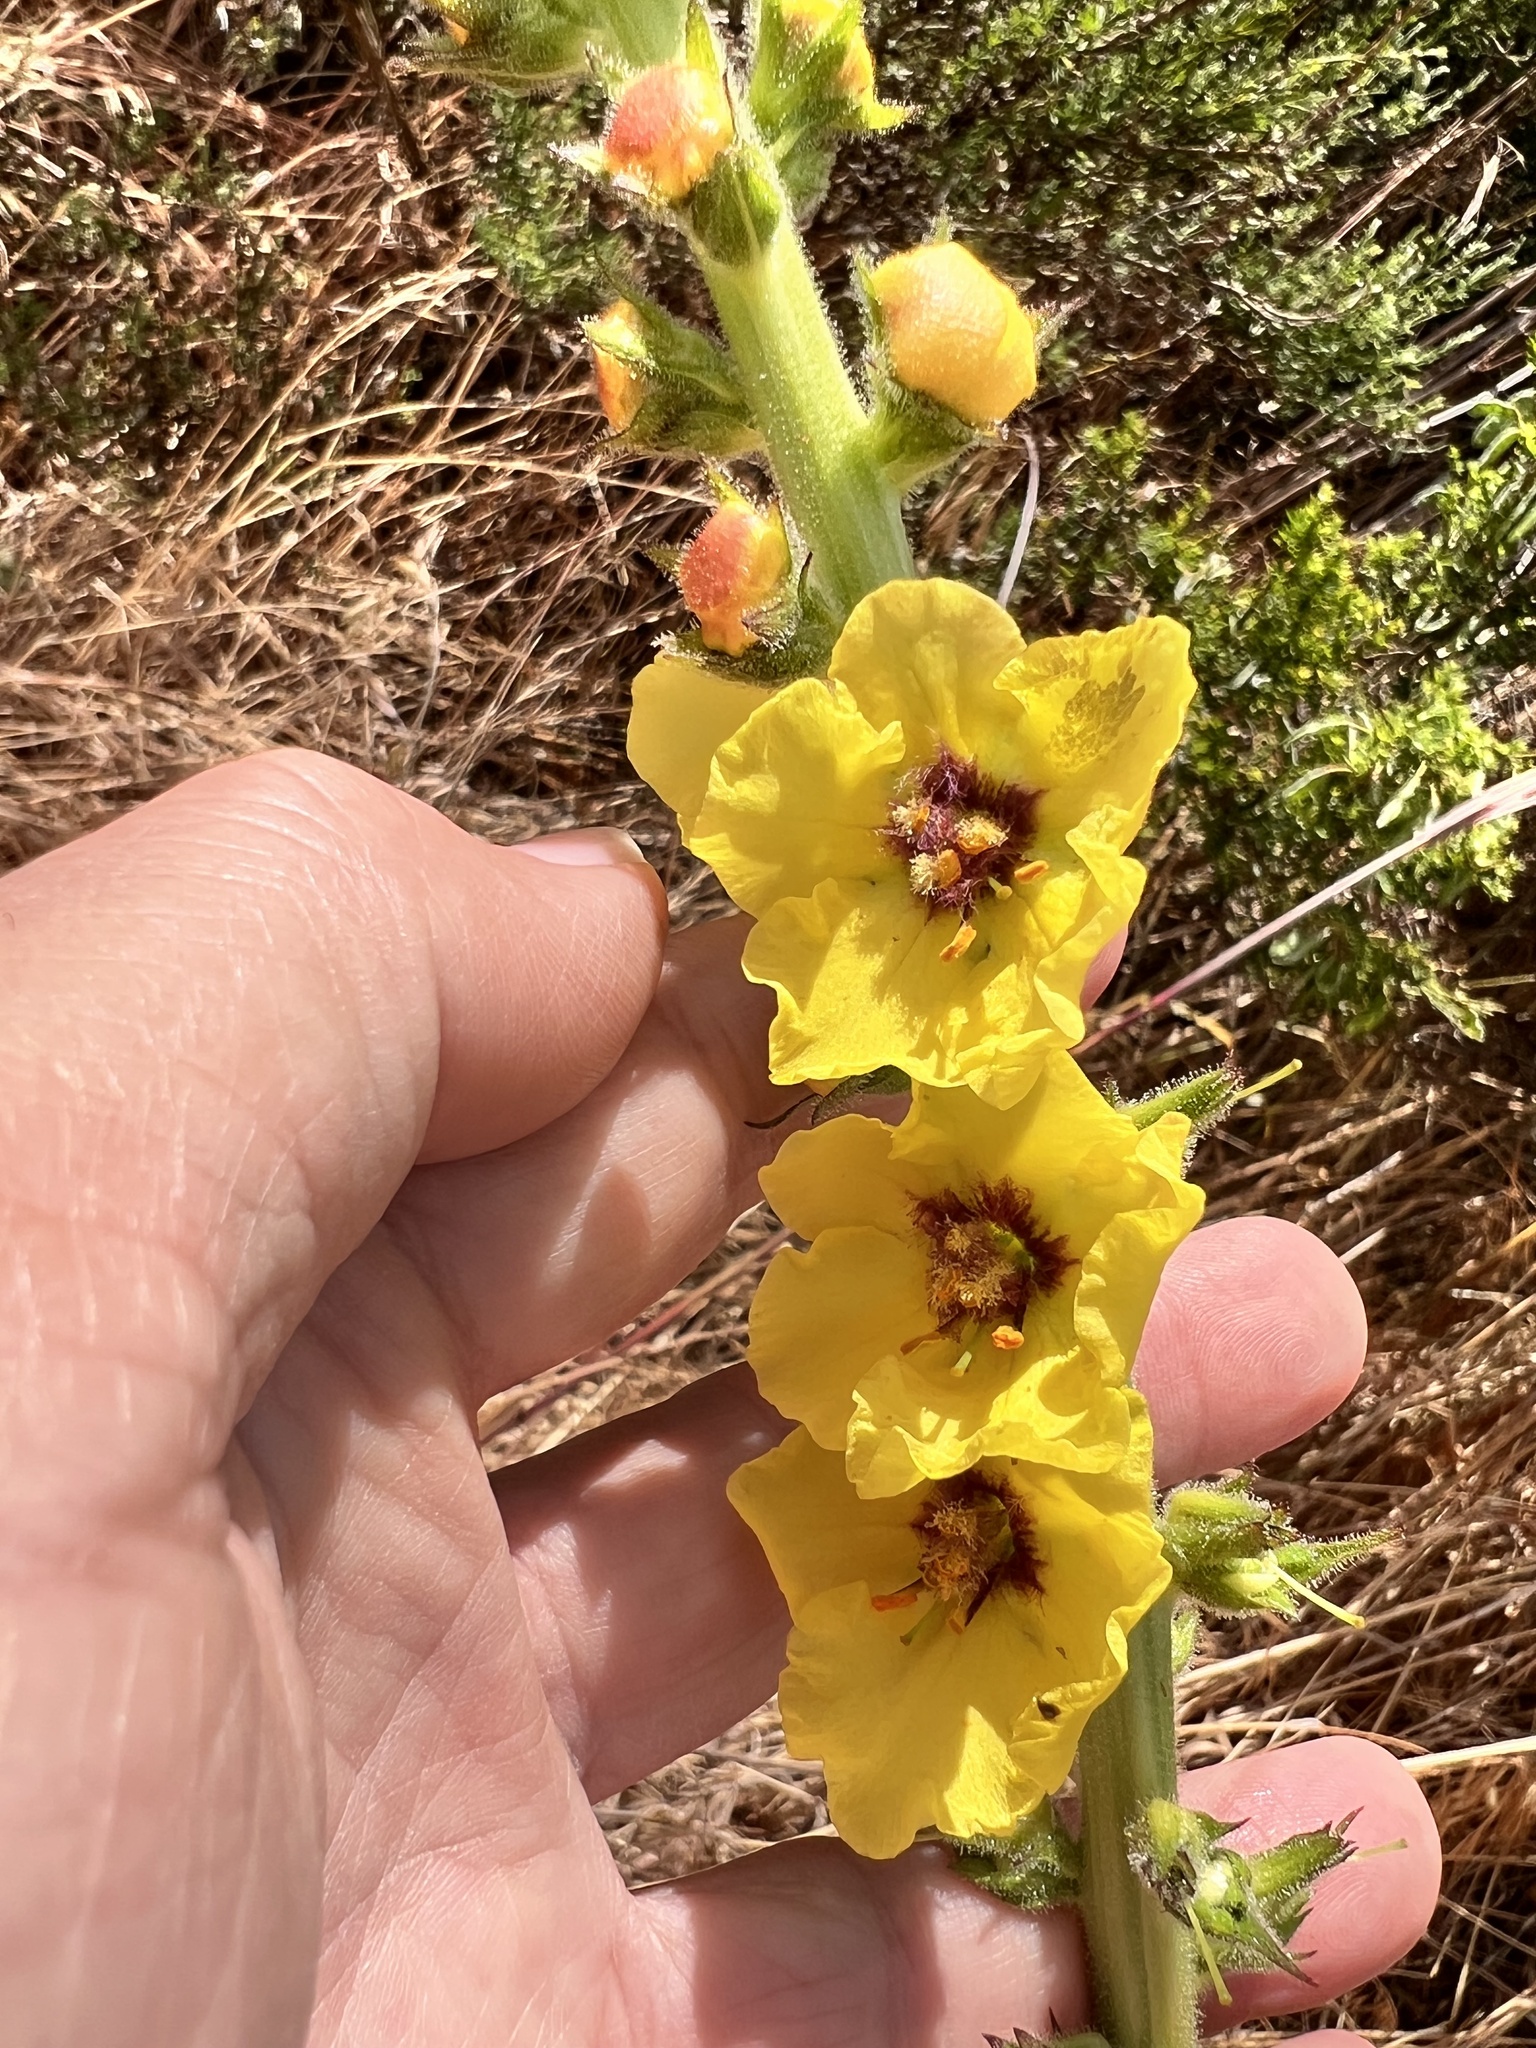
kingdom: Plantae
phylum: Tracheophyta
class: Magnoliopsida
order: Lamiales
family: Scrophulariaceae
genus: Verbascum
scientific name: Verbascum virgatum
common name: Twiggy mullein
